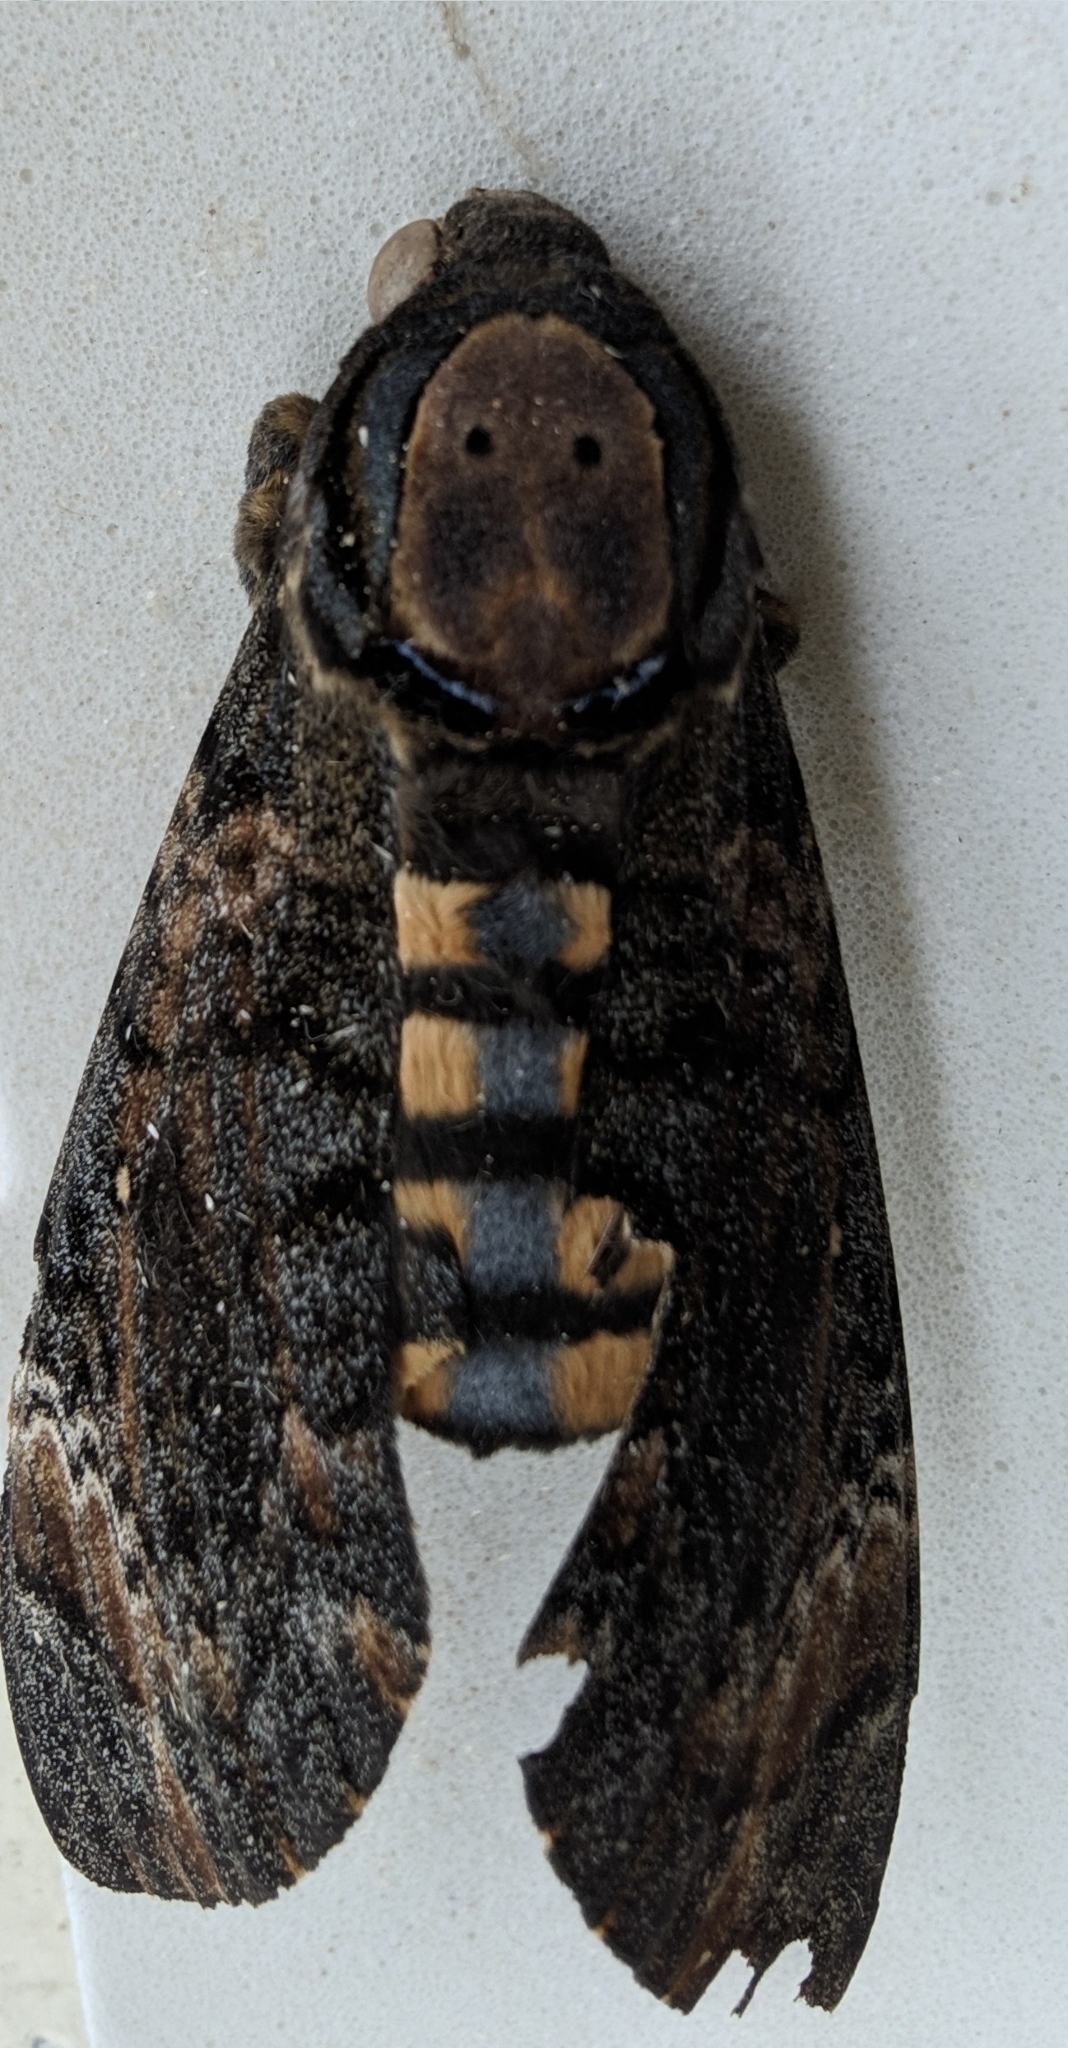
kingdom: Animalia
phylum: Arthropoda
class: Insecta
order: Lepidoptera
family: Sphingidae
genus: Acherontia
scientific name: Acherontia styx
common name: Death's-head hawk moth
